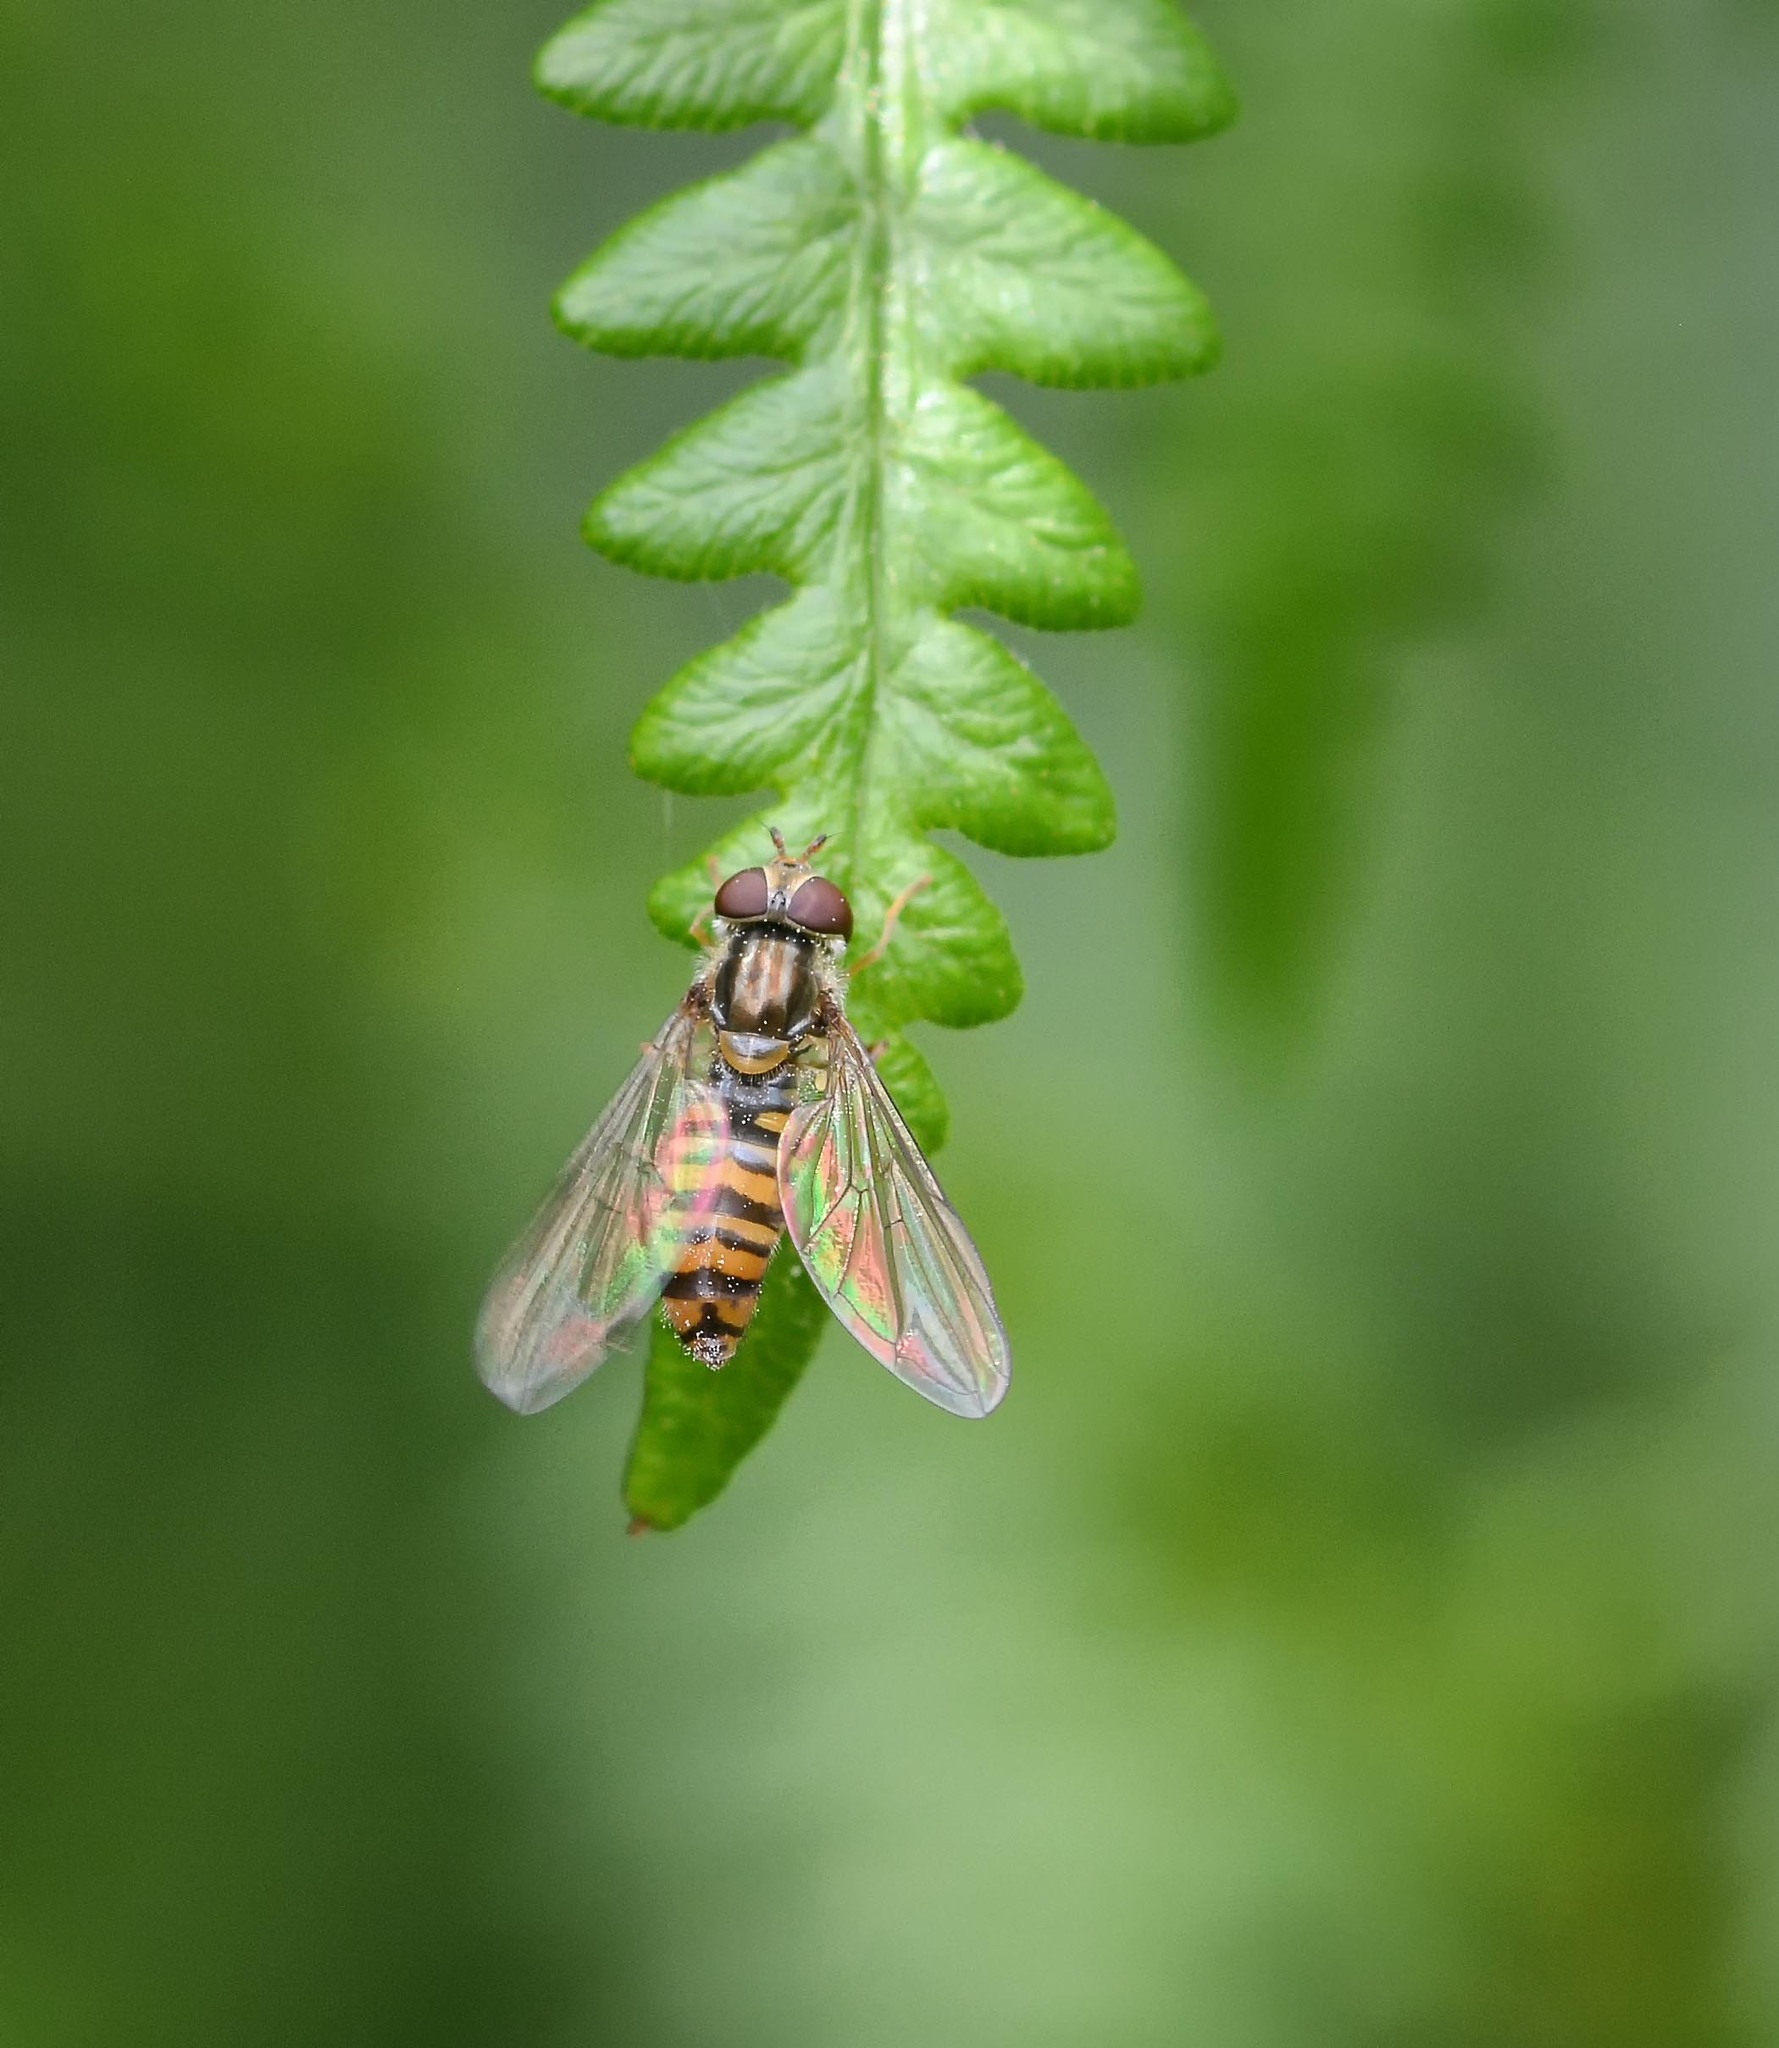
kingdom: Animalia
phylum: Arthropoda
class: Insecta
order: Diptera
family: Syrphidae
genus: Episyrphus
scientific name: Episyrphus balteatus
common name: Marmalade hoverfly
